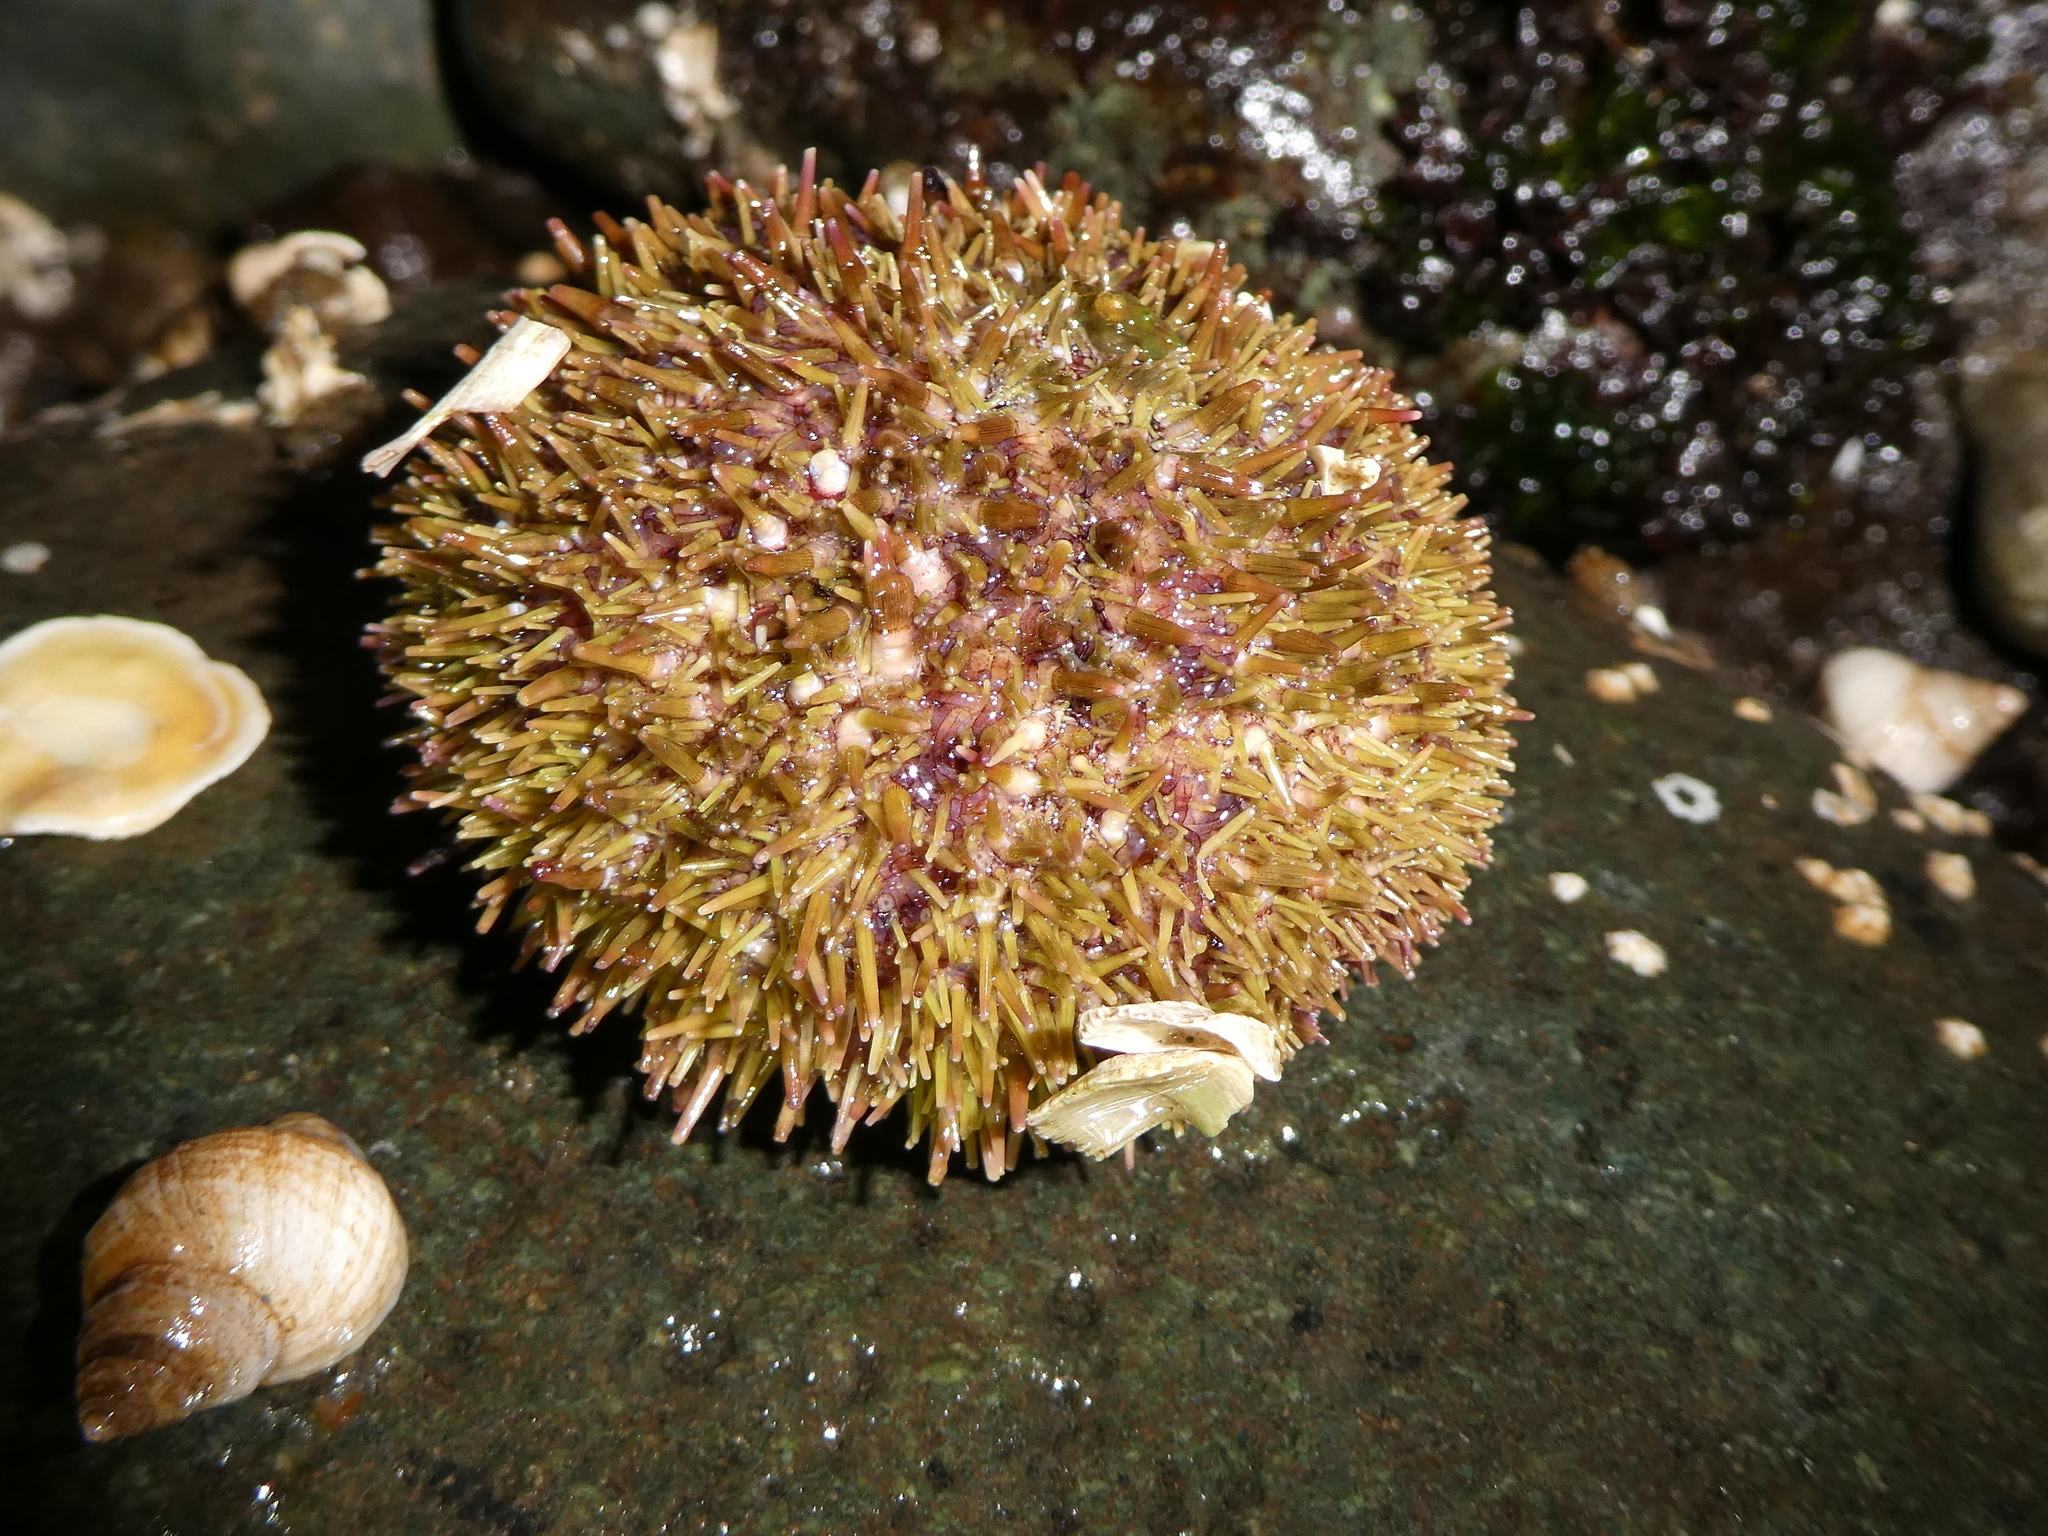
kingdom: Animalia
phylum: Echinodermata
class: Echinoidea
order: Camarodonta
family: Strongylocentrotidae
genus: Strongylocentrotus
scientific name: Strongylocentrotus droebachiensis
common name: Northern sea urchin
